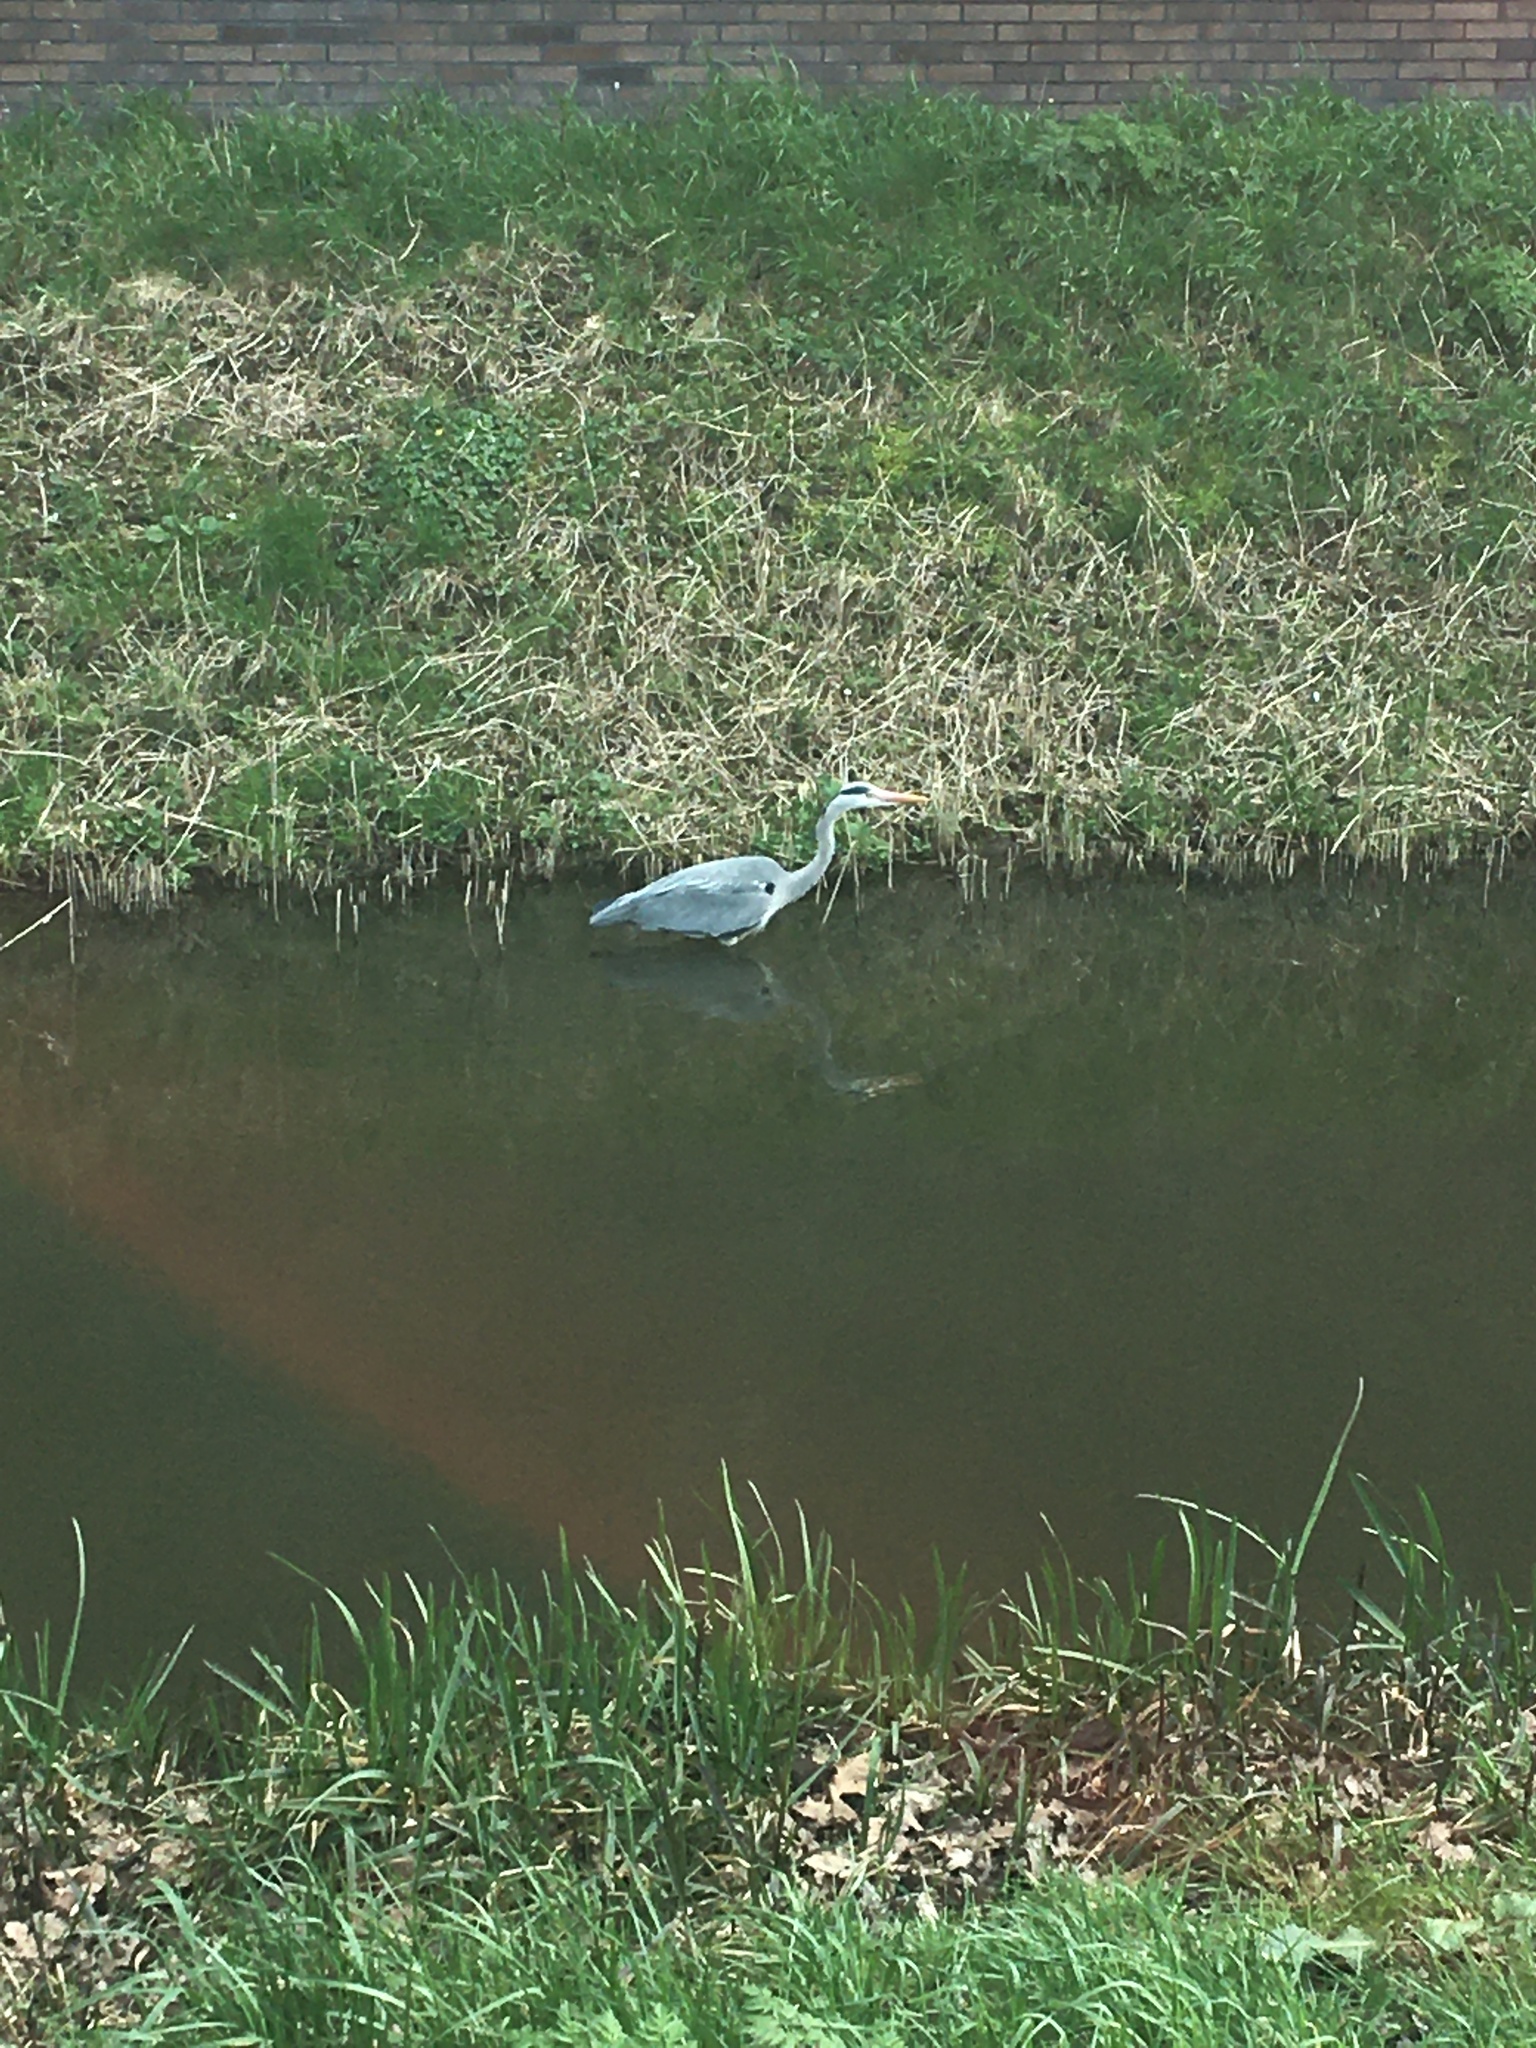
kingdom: Animalia
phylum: Chordata
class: Aves
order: Pelecaniformes
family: Ardeidae
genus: Ardea
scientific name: Ardea cinerea
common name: Grey heron
